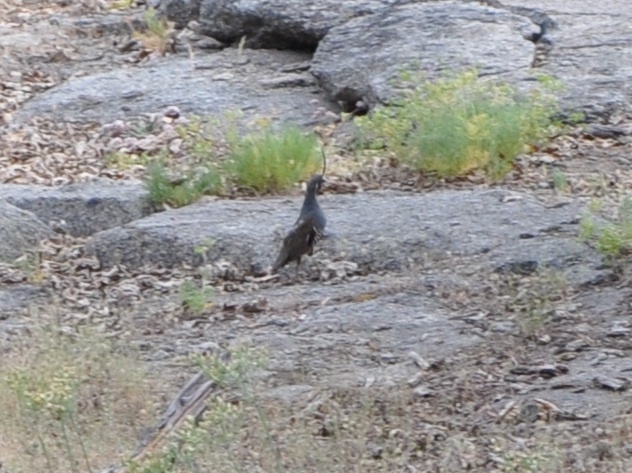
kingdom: Animalia
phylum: Chordata
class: Aves
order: Galliformes
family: Odontophoridae
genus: Oreortyx
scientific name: Oreortyx pictus
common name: Mountain quail
